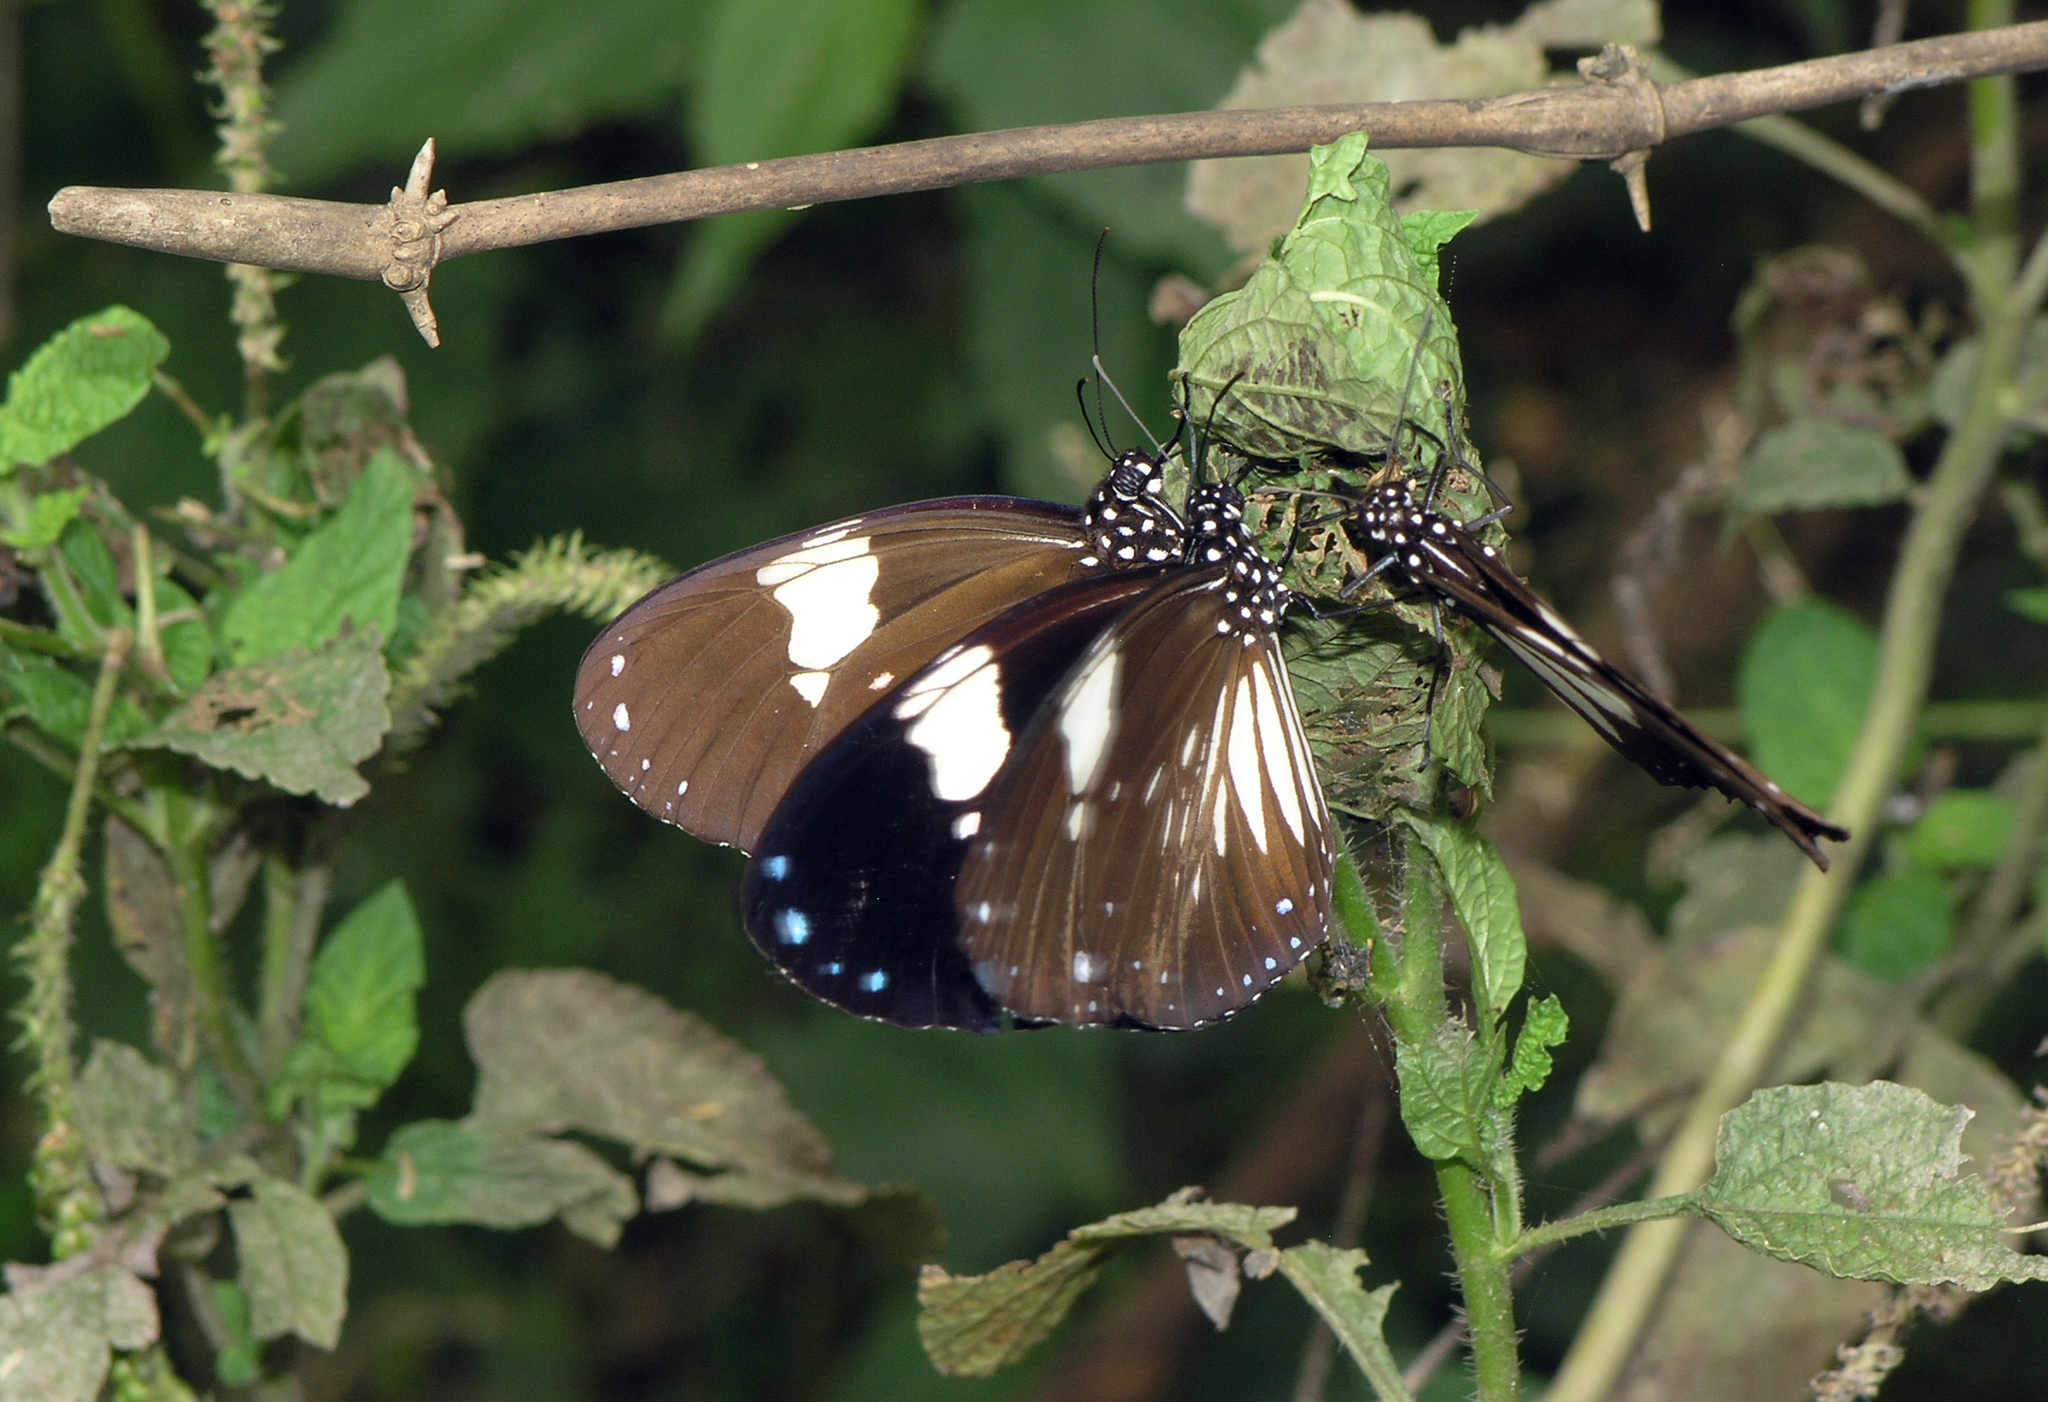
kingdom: Animalia
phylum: Arthropoda
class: Insecta
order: Lepidoptera
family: Nymphalidae
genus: Euploea
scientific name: Euploea radamanthus
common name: Magpie crow butterfly
